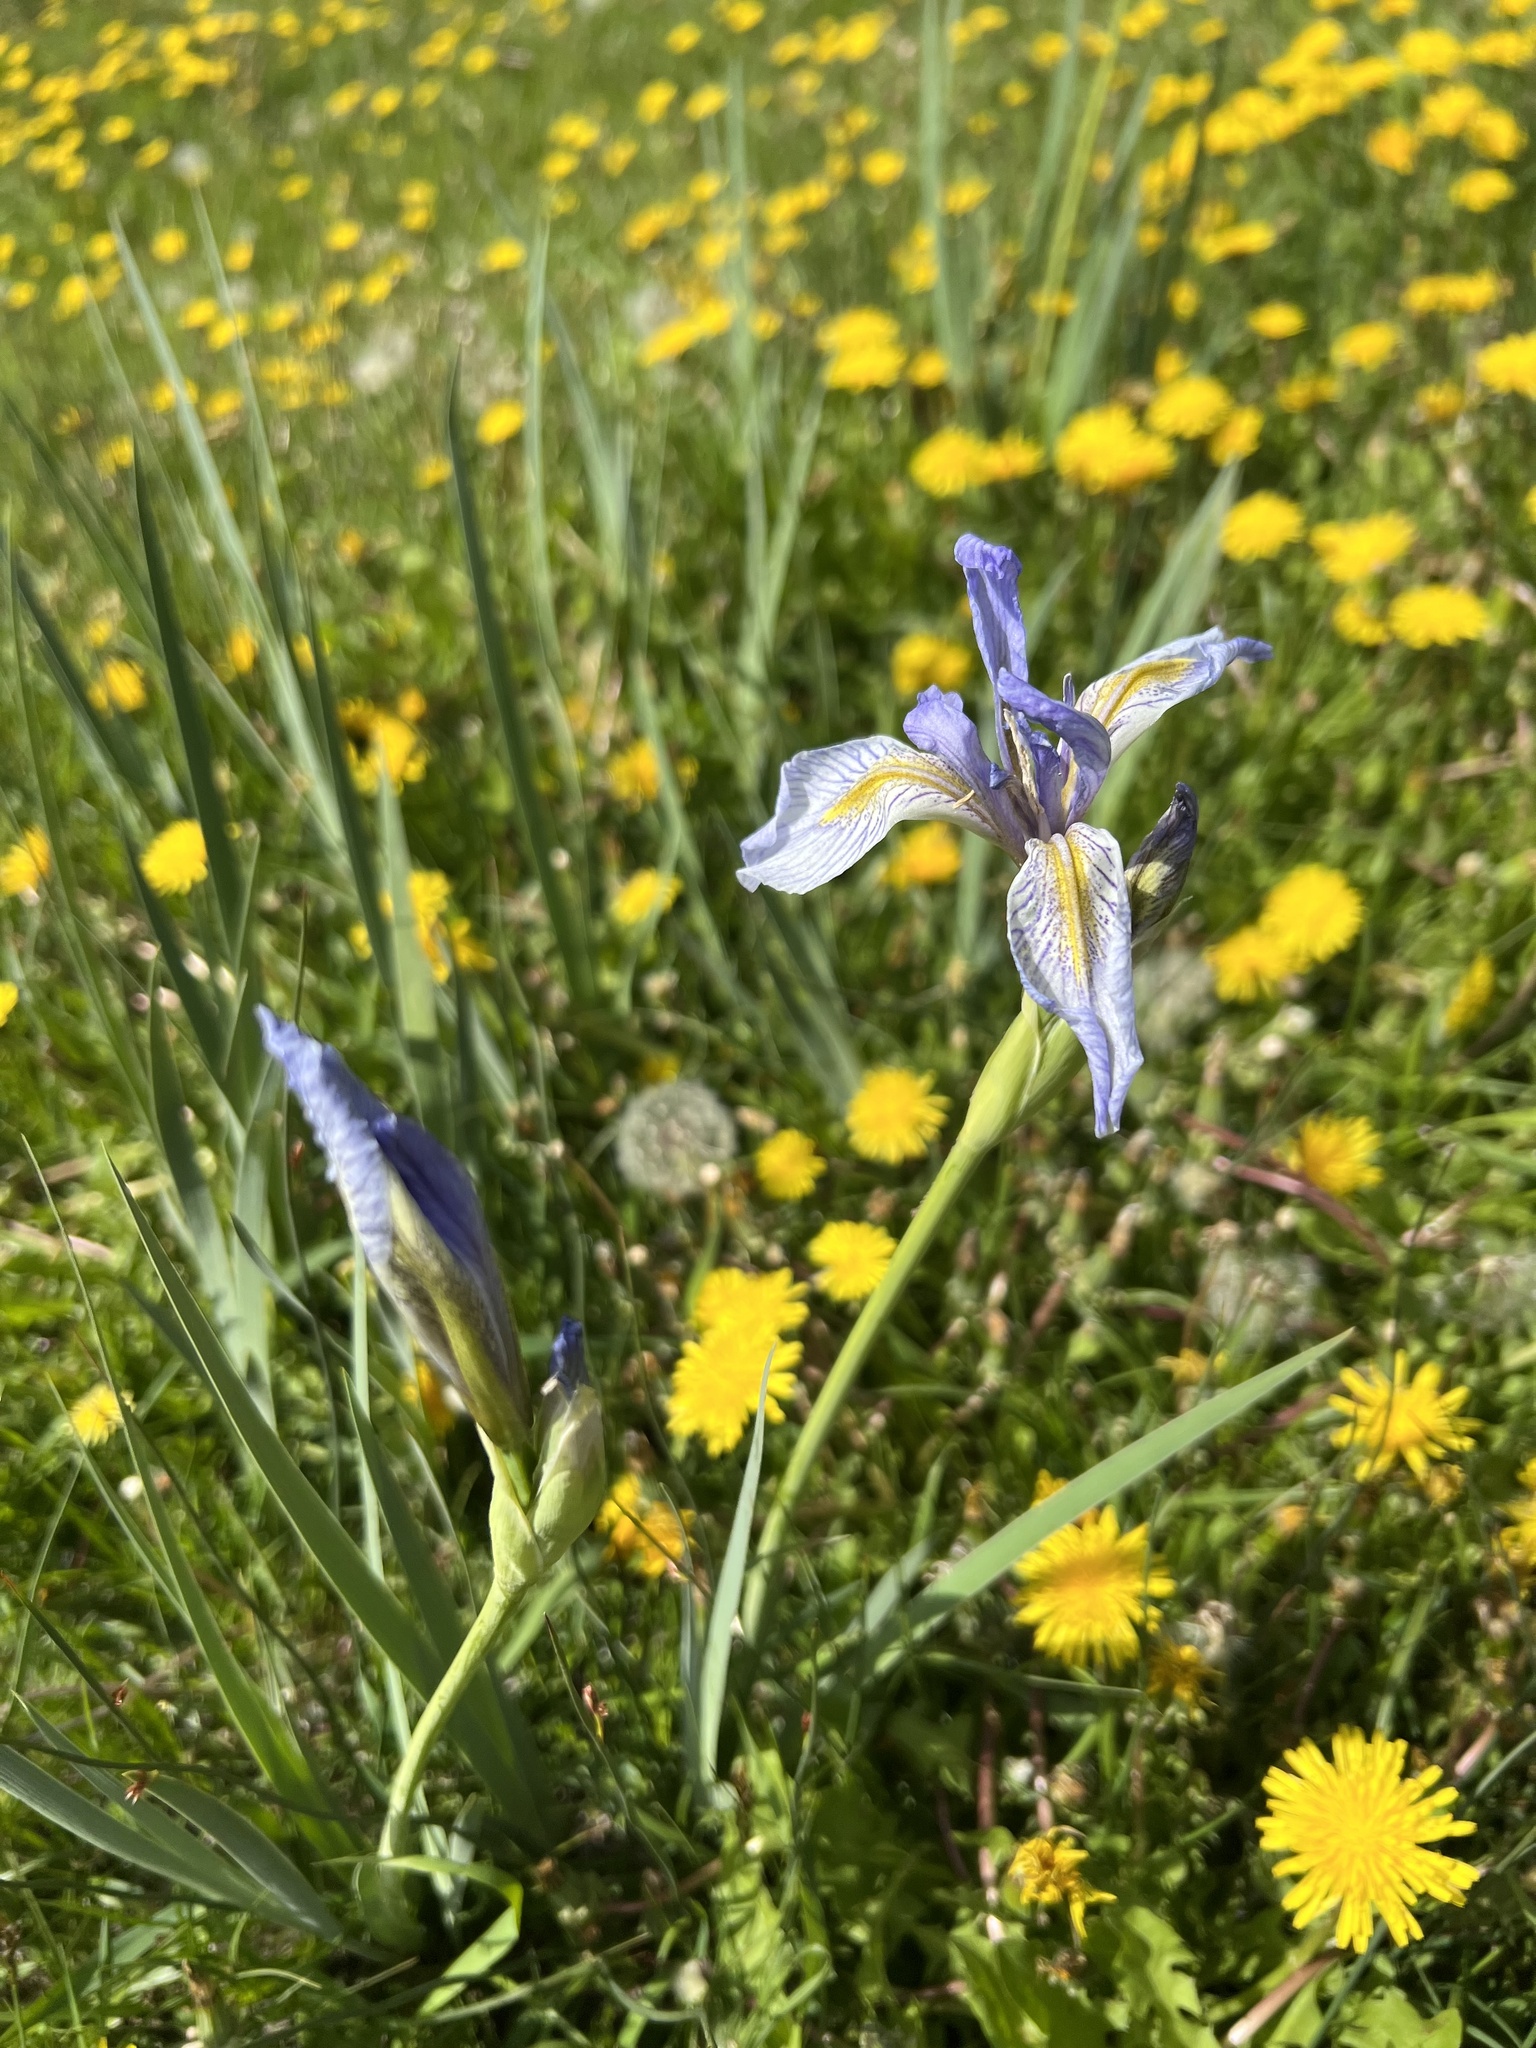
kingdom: Plantae
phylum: Tracheophyta
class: Liliopsida
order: Asparagales
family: Iridaceae
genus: Iris
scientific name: Iris missouriensis
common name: Rocky mountain iris
